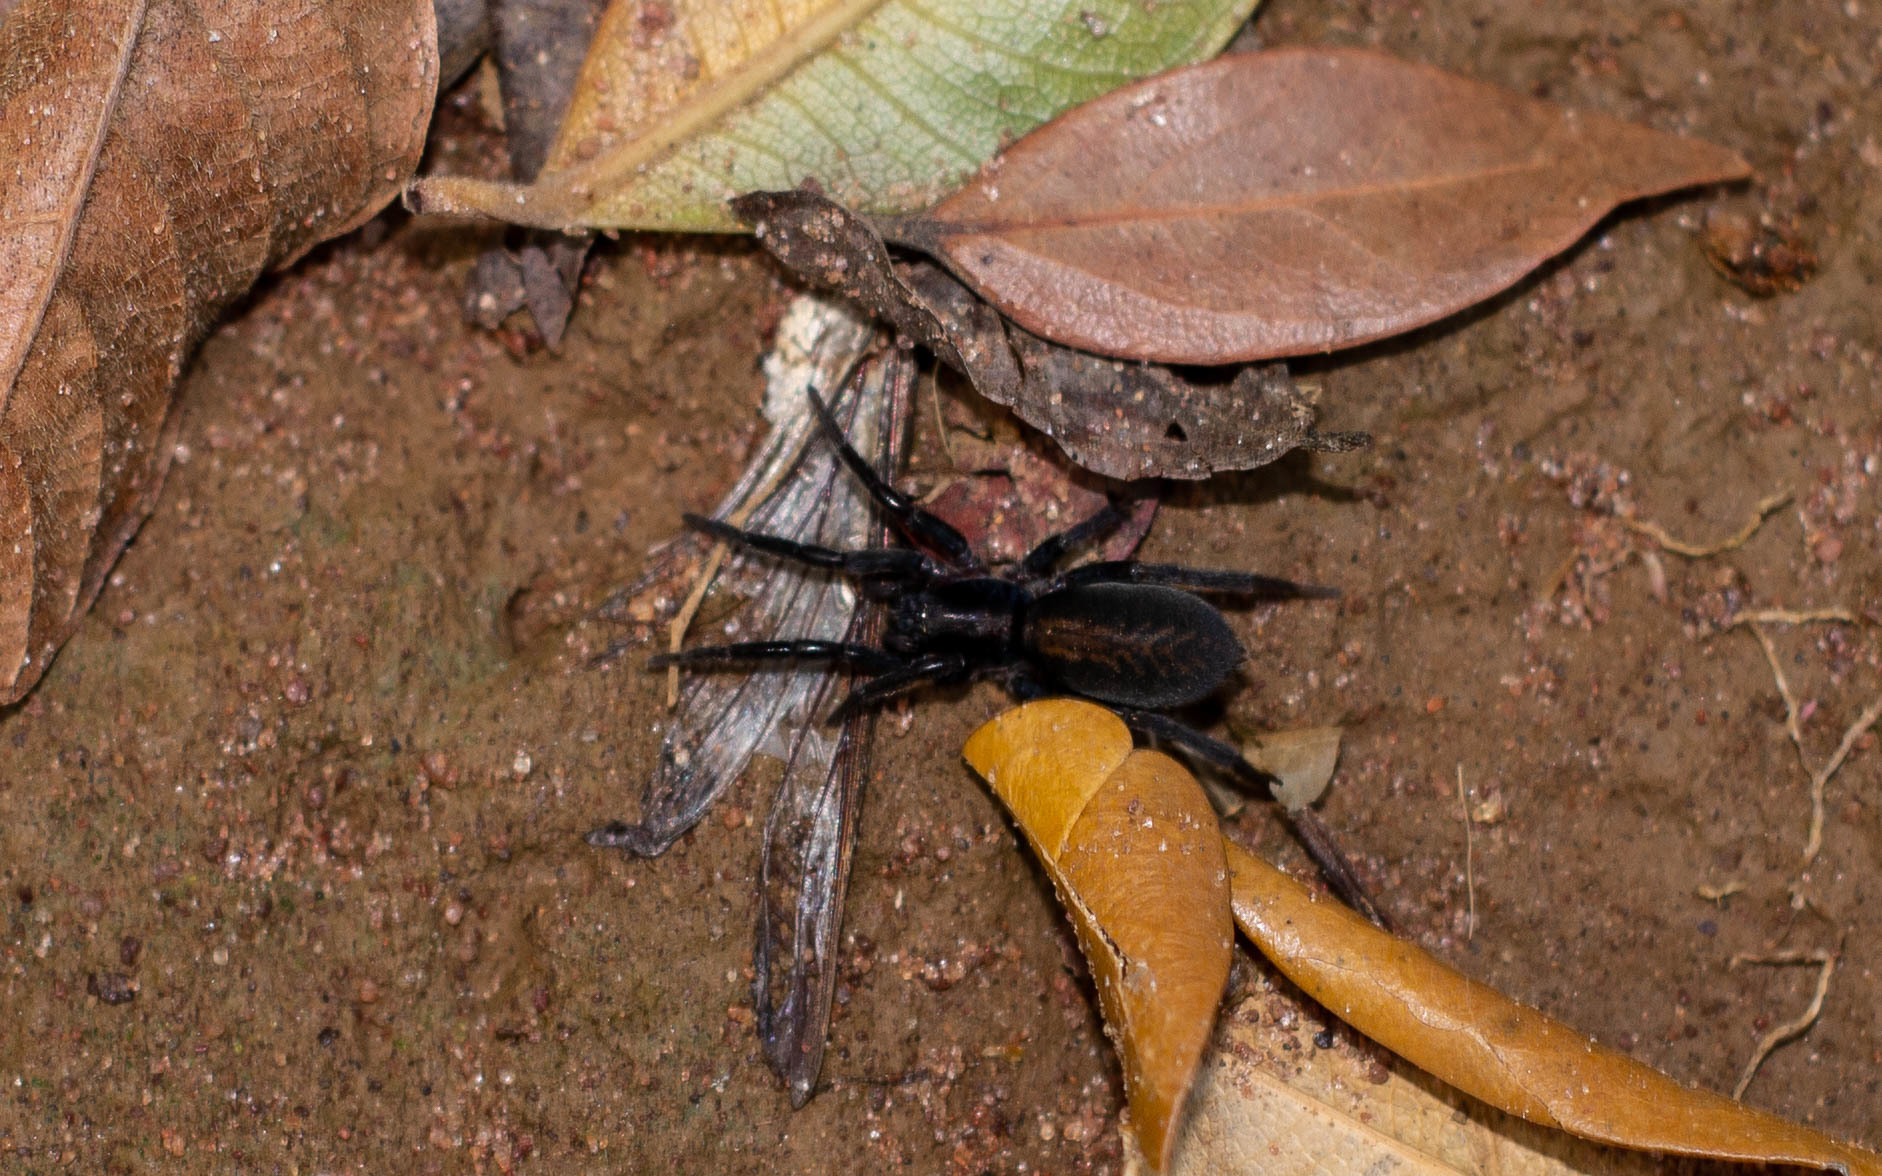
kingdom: Animalia
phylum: Arthropoda
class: Arachnida
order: Araneae
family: Miturgidae
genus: Teminius
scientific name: Teminius insularis
